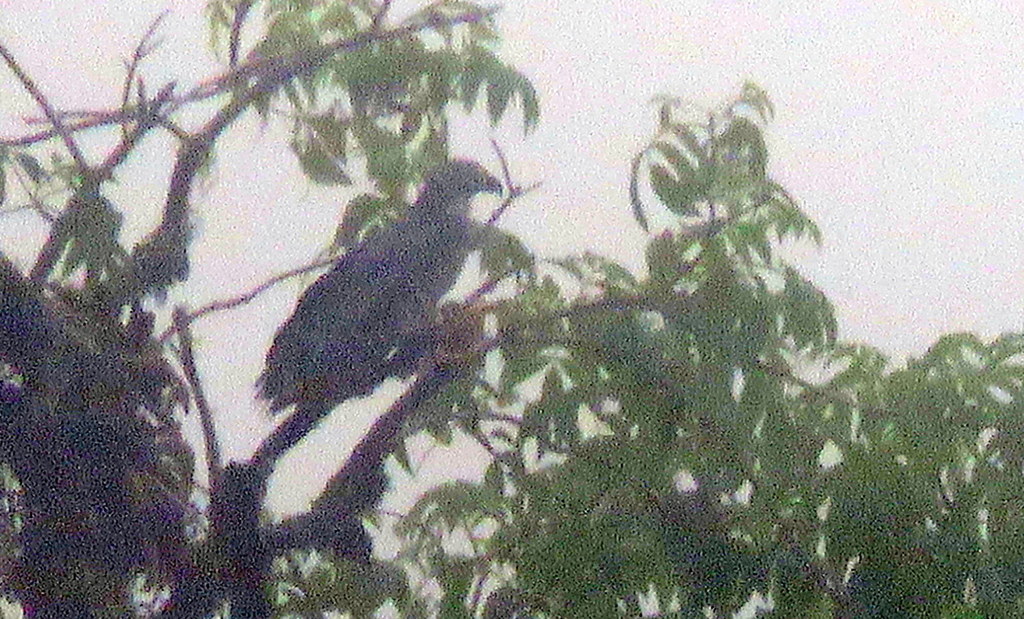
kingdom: Animalia
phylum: Chordata
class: Aves
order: Accipitriformes
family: Accipitridae
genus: Chondrohierax
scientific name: Chondrohierax uncinatus
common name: Hook-billed kite
